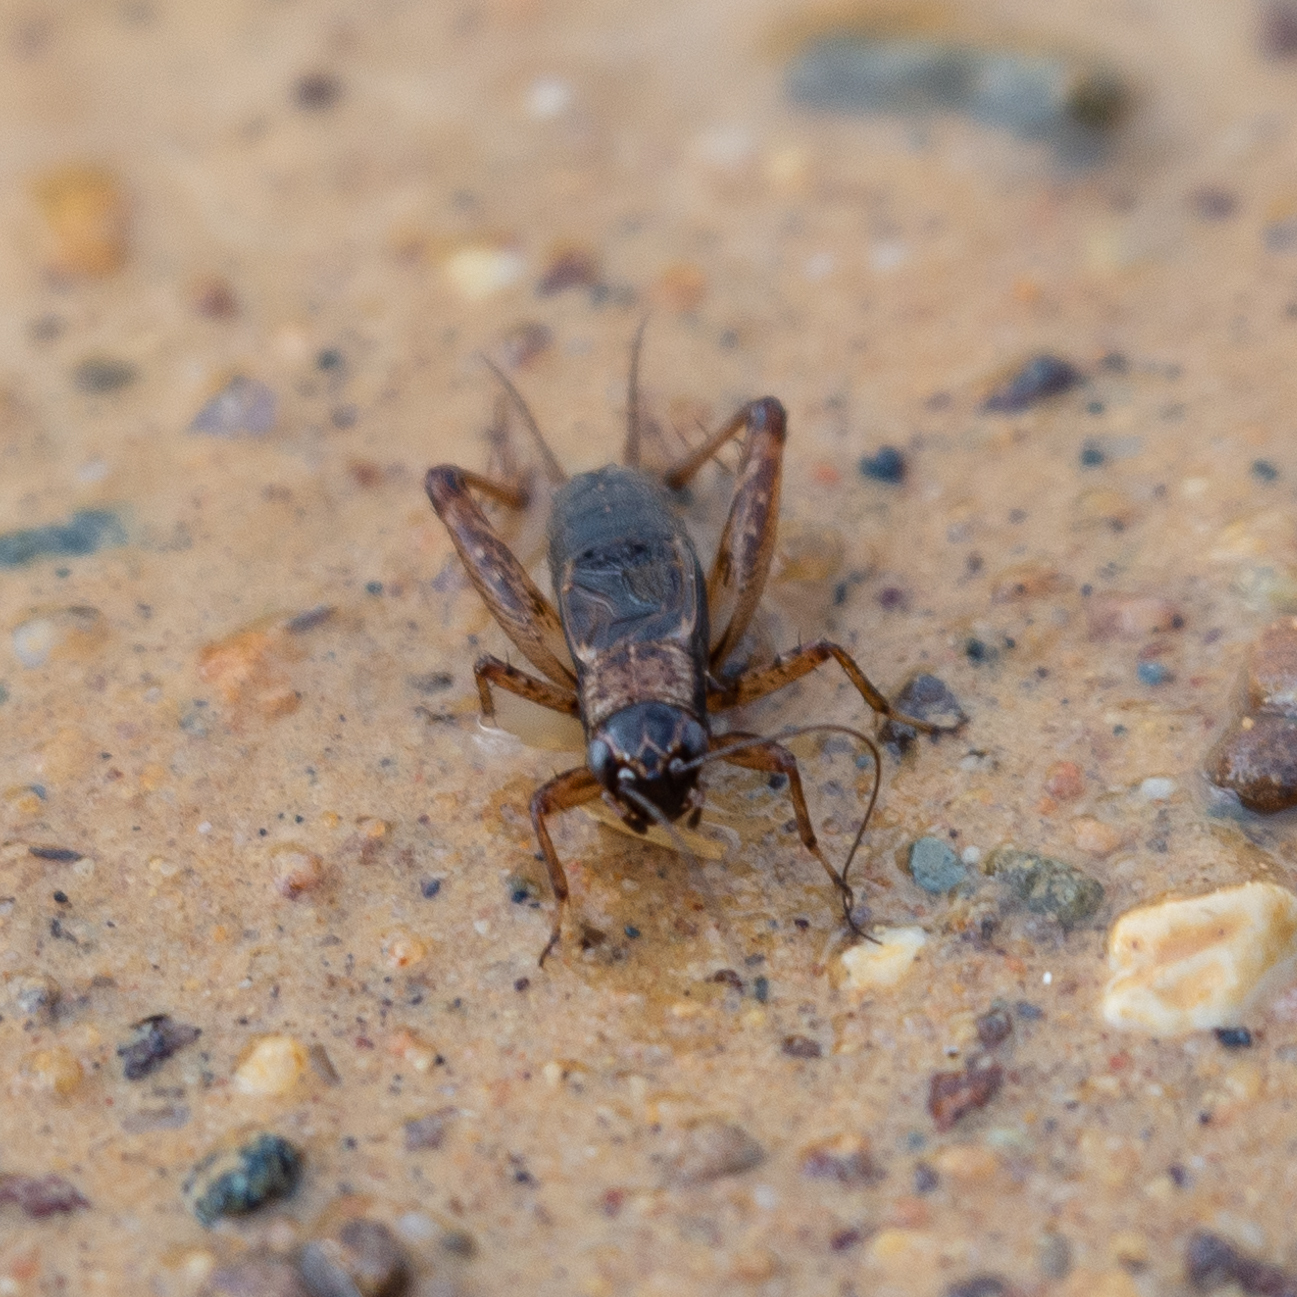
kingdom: Animalia
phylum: Arthropoda
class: Insecta
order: Orthoptera
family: Trigonidiidae
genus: Nemobius
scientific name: Nemobius sylvestris
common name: Wood-cricket
